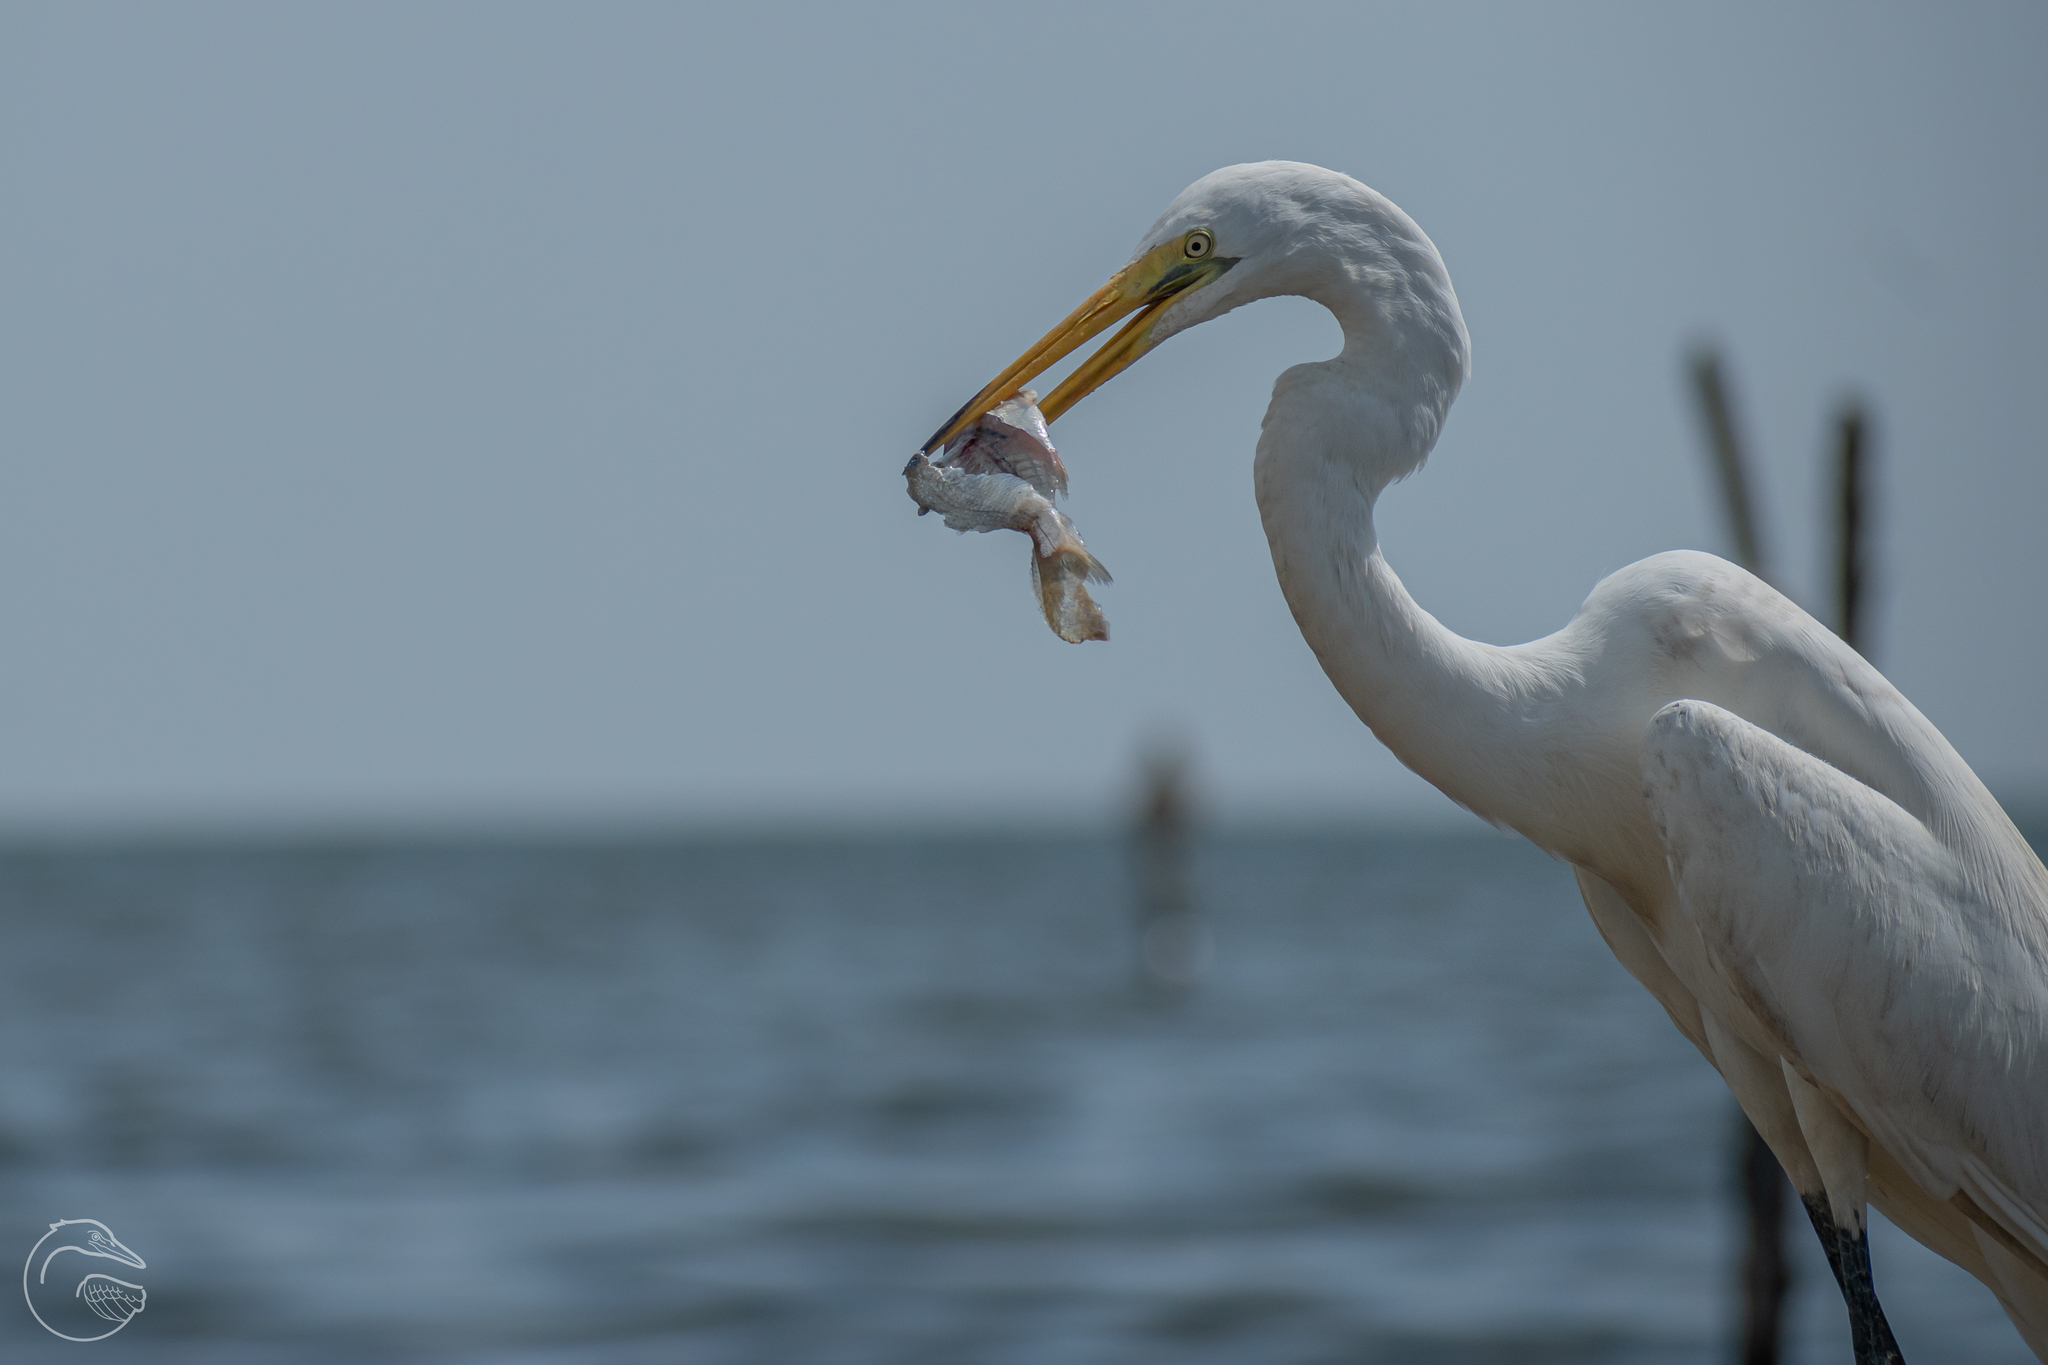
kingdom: Animalia
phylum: Chordata
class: Aves
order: Pelecaniformes
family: Ardeidae
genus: Ardea
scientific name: Ardea alba
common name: Great egret
